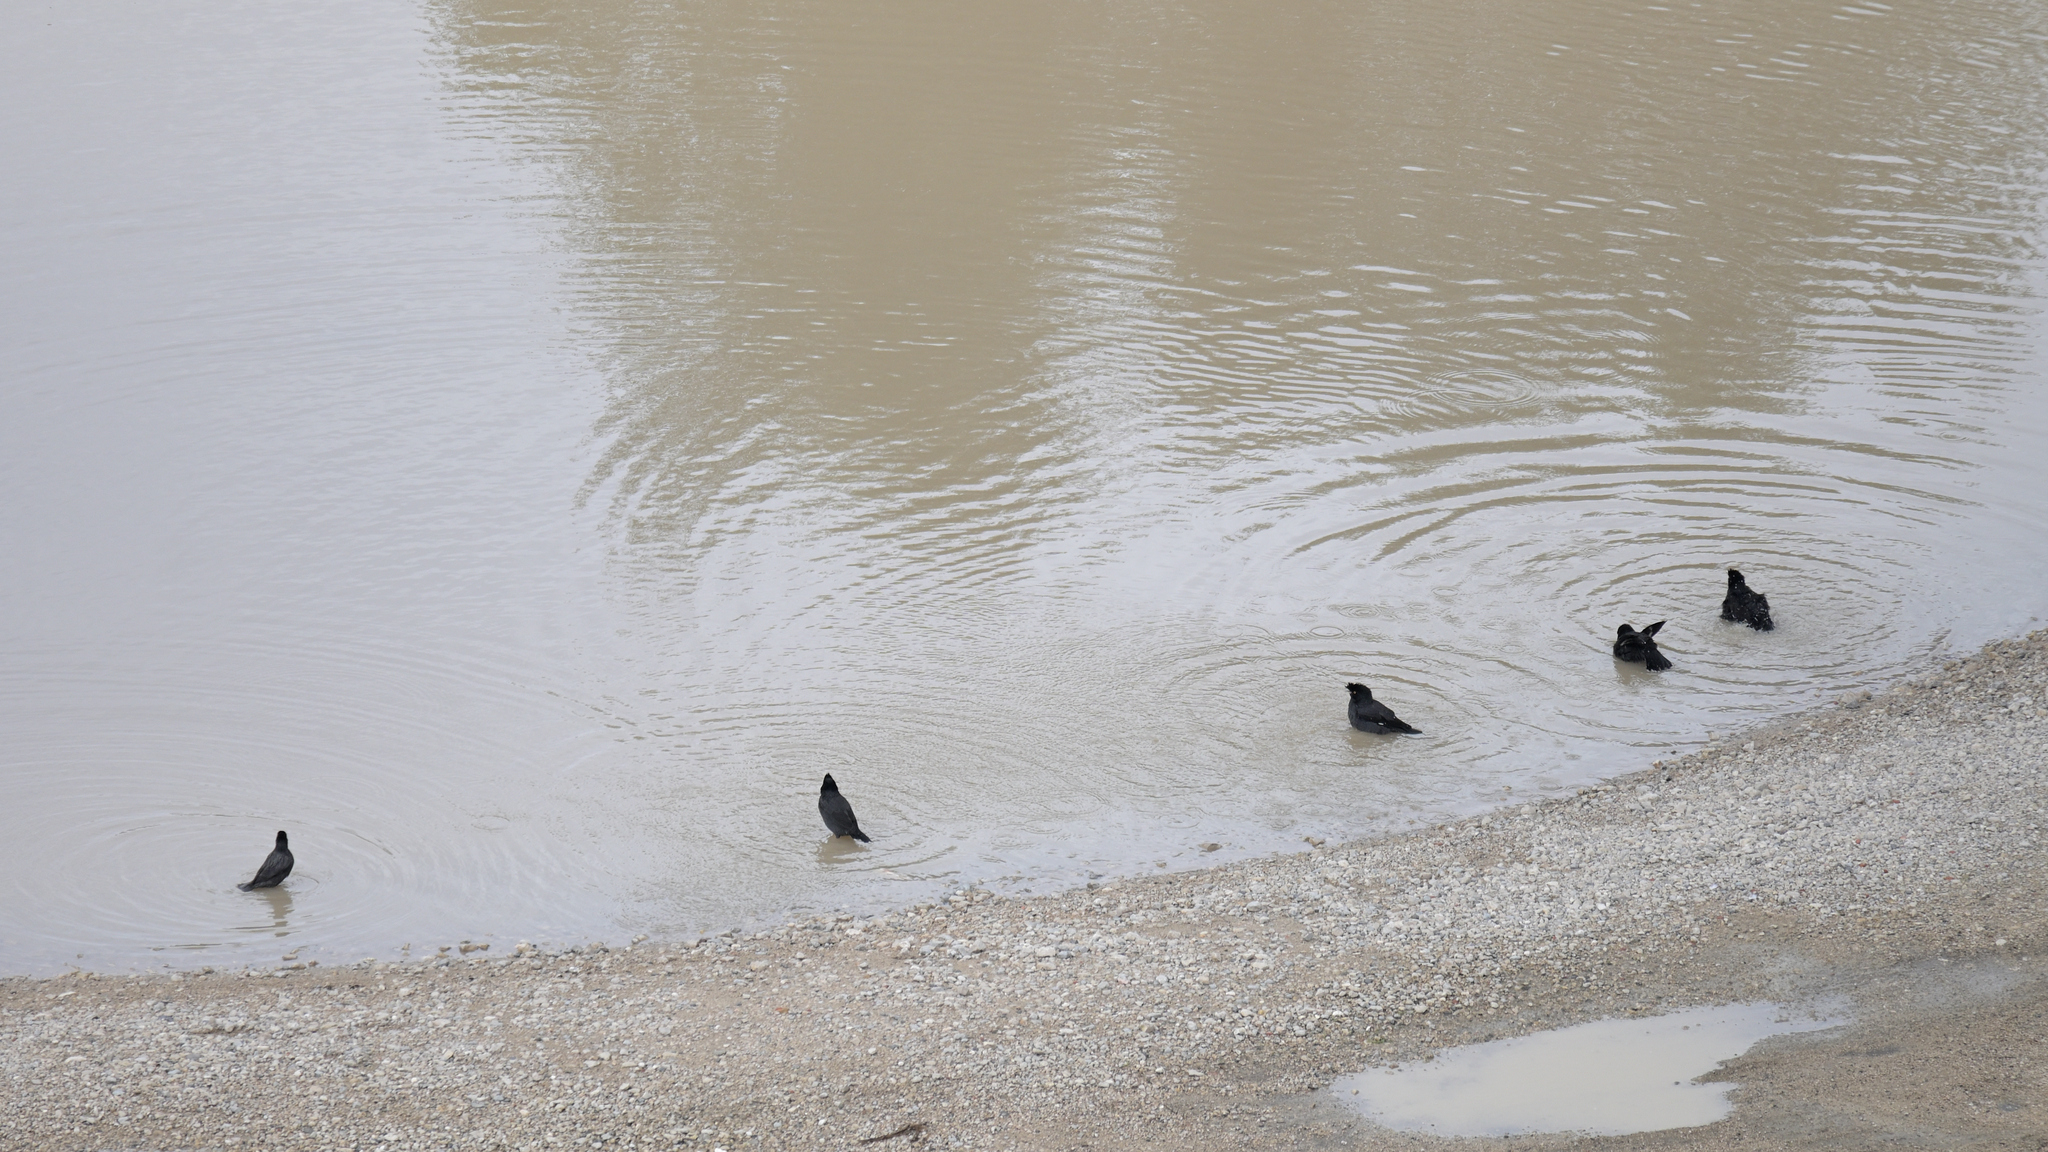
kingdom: Animalia
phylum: Chordata
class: Aves
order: Passeriformes
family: Sturnidae
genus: Acridotheres
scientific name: Acridotheres cristatellus
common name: Crested myna
